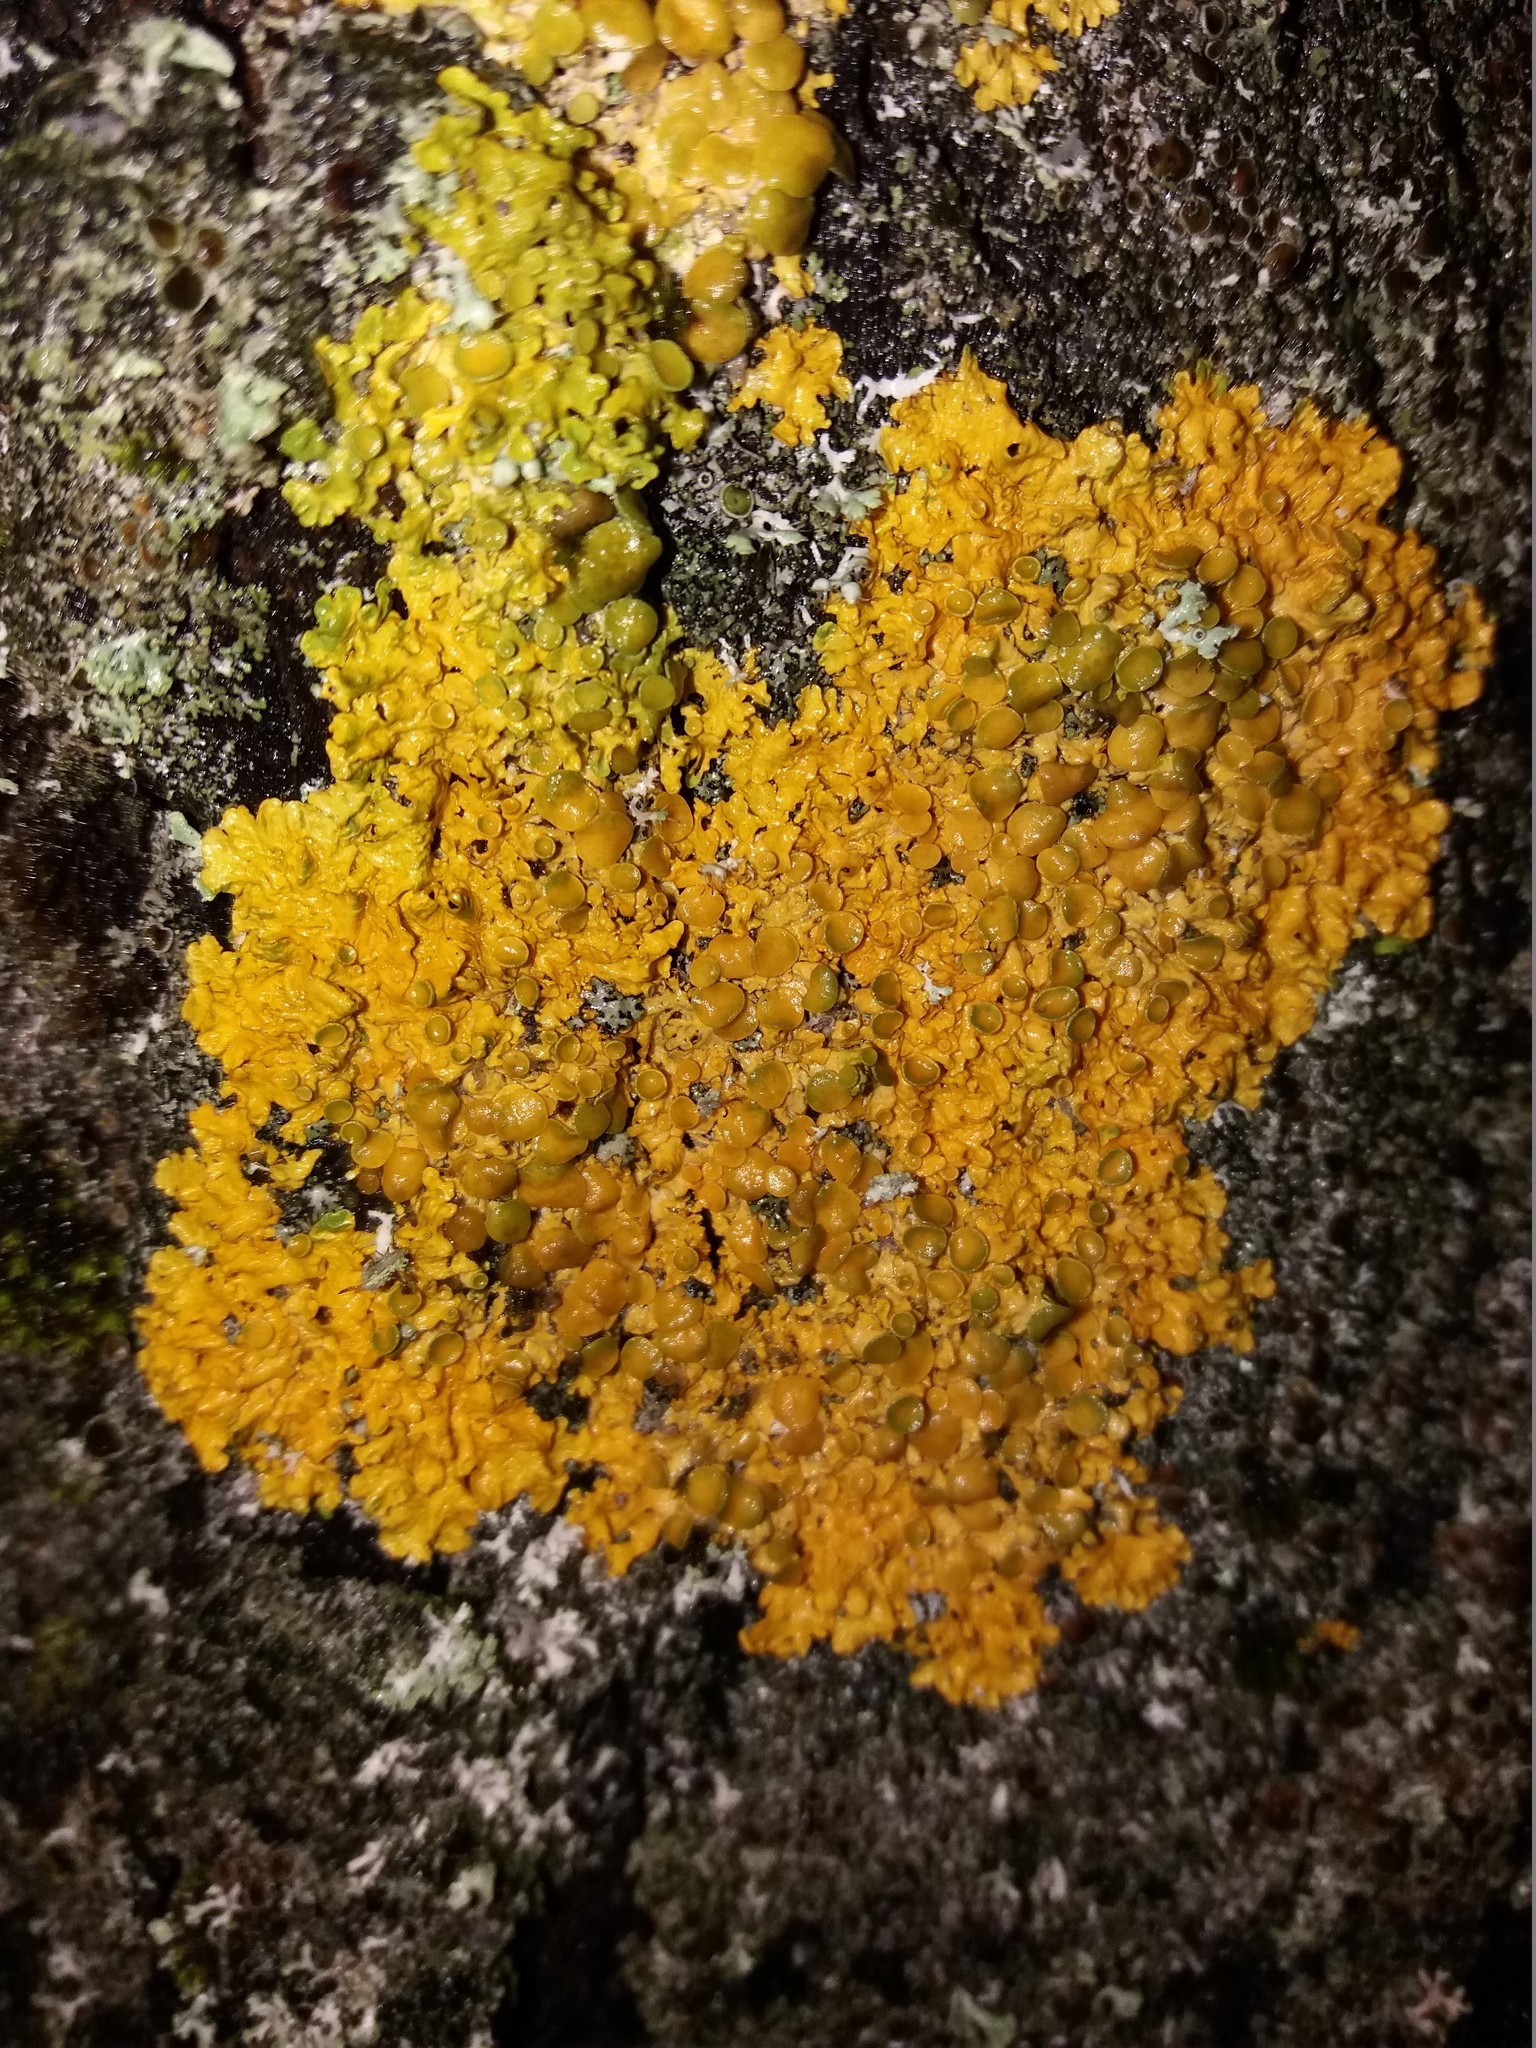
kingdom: Fungi
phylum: Ascomycota
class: Lecanoromycetes
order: Teloschistales
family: Teloschistaceae
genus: Xanthoria
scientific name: Xanthoria parietina
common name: Common orange lichen
